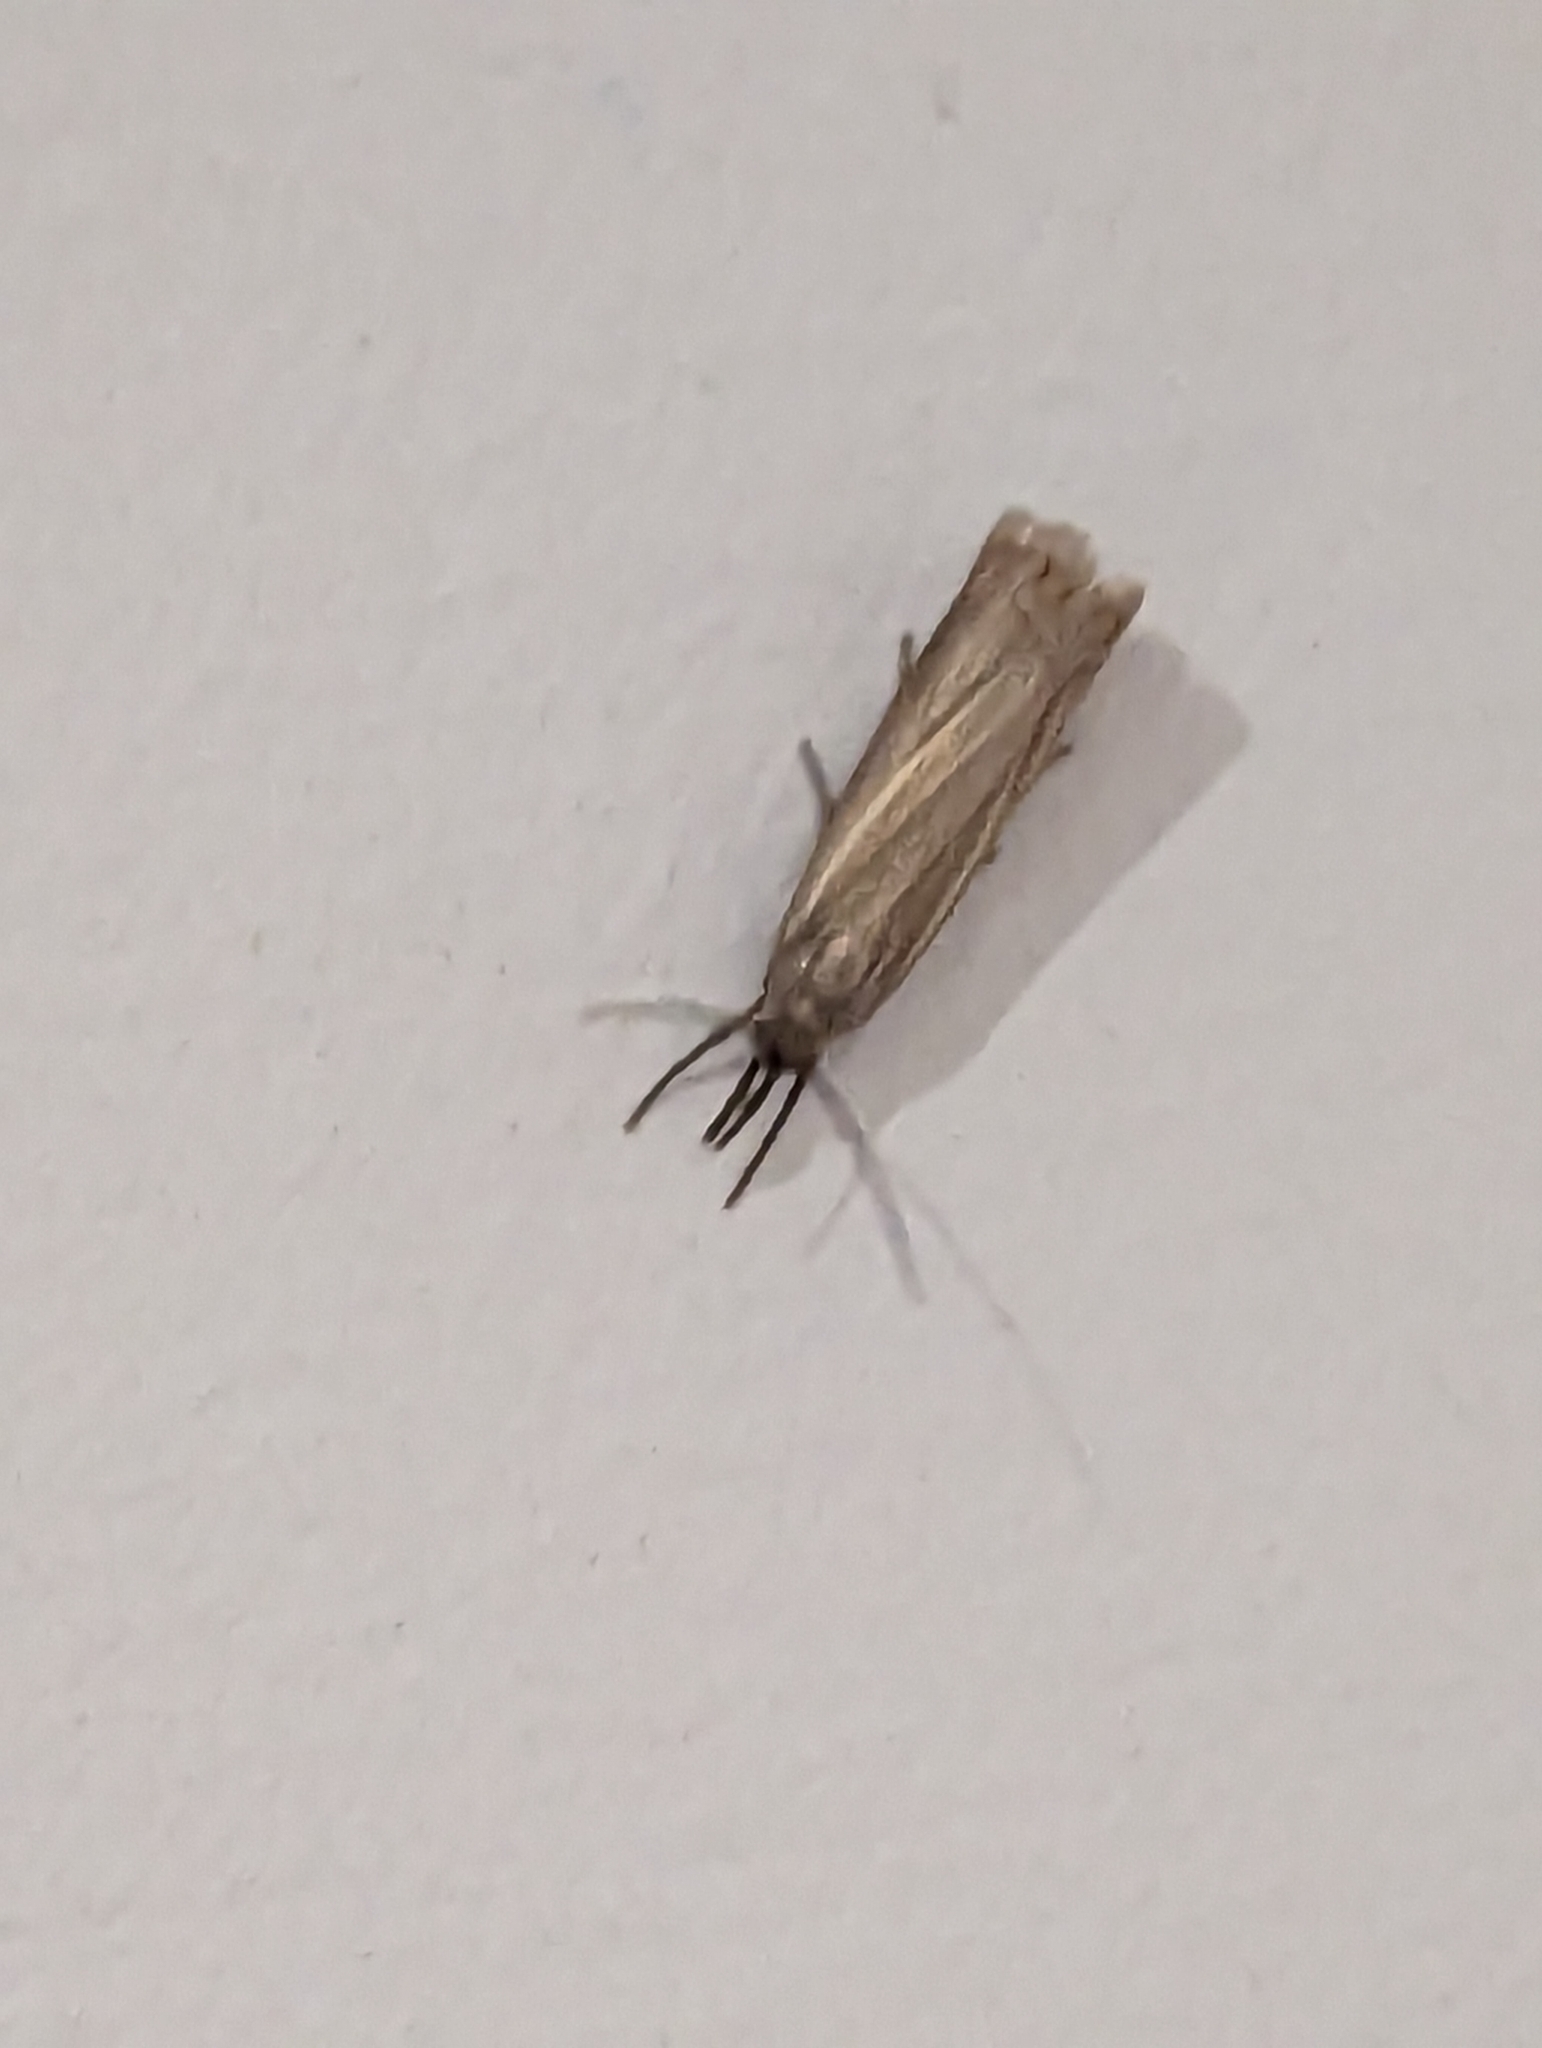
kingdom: Animalia
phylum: Arthropoda
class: Insecta
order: Lepidoptera
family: Crambidae
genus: Chrysoteuchia
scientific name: Chrysoteuchia culmella
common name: Garden grass-veneer
